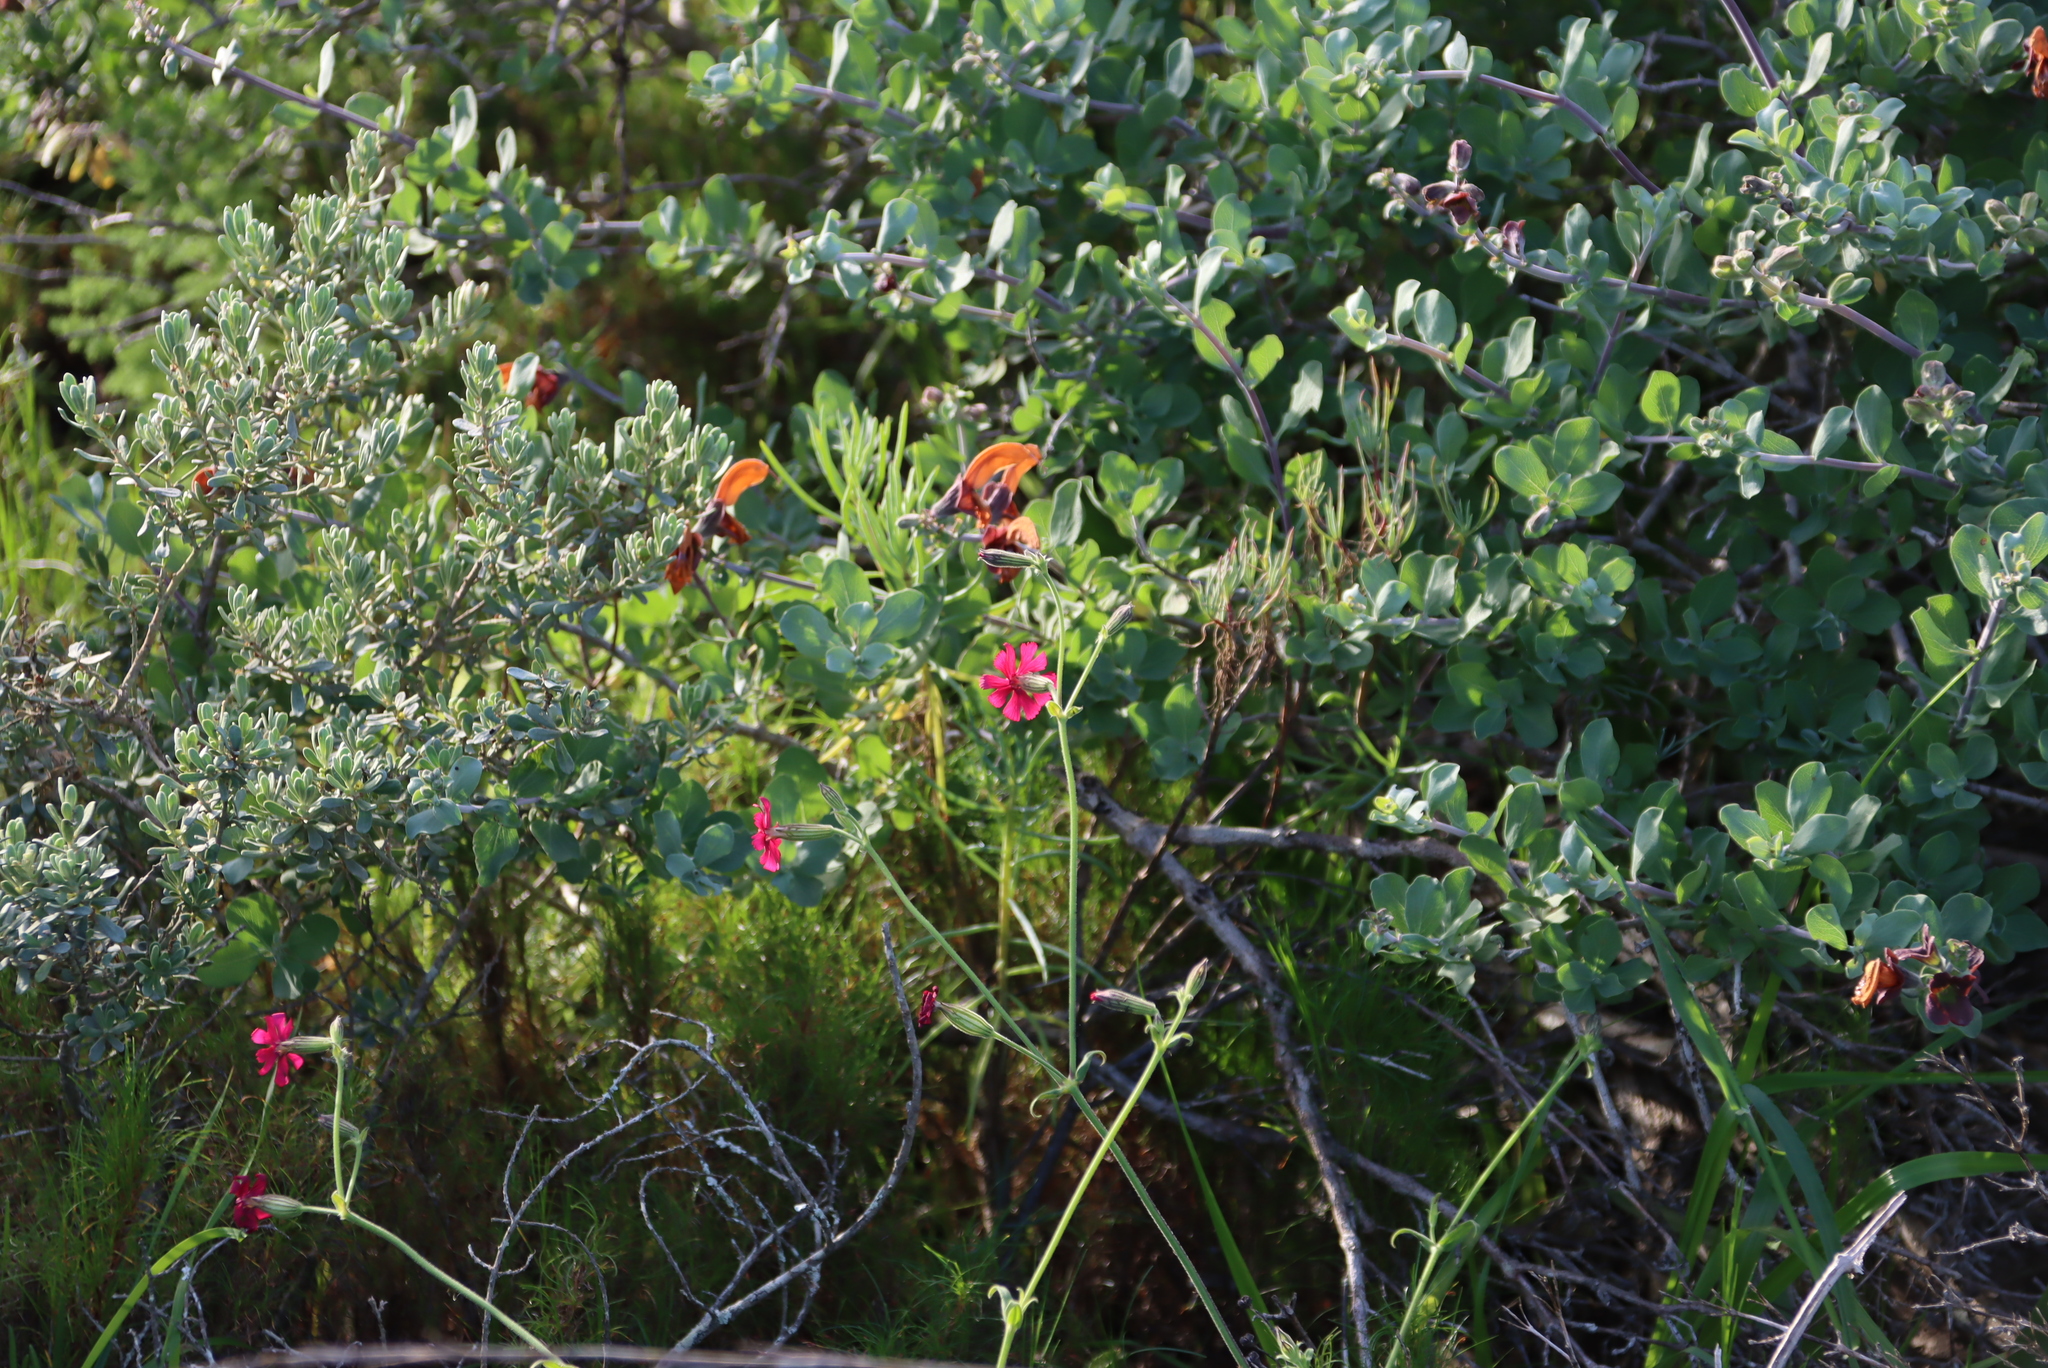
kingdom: Plantae
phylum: Tracheophyta
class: Magnoliopsida
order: Caryophyllales
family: Caryophyllaceae
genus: Silene
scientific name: Silene ornata
